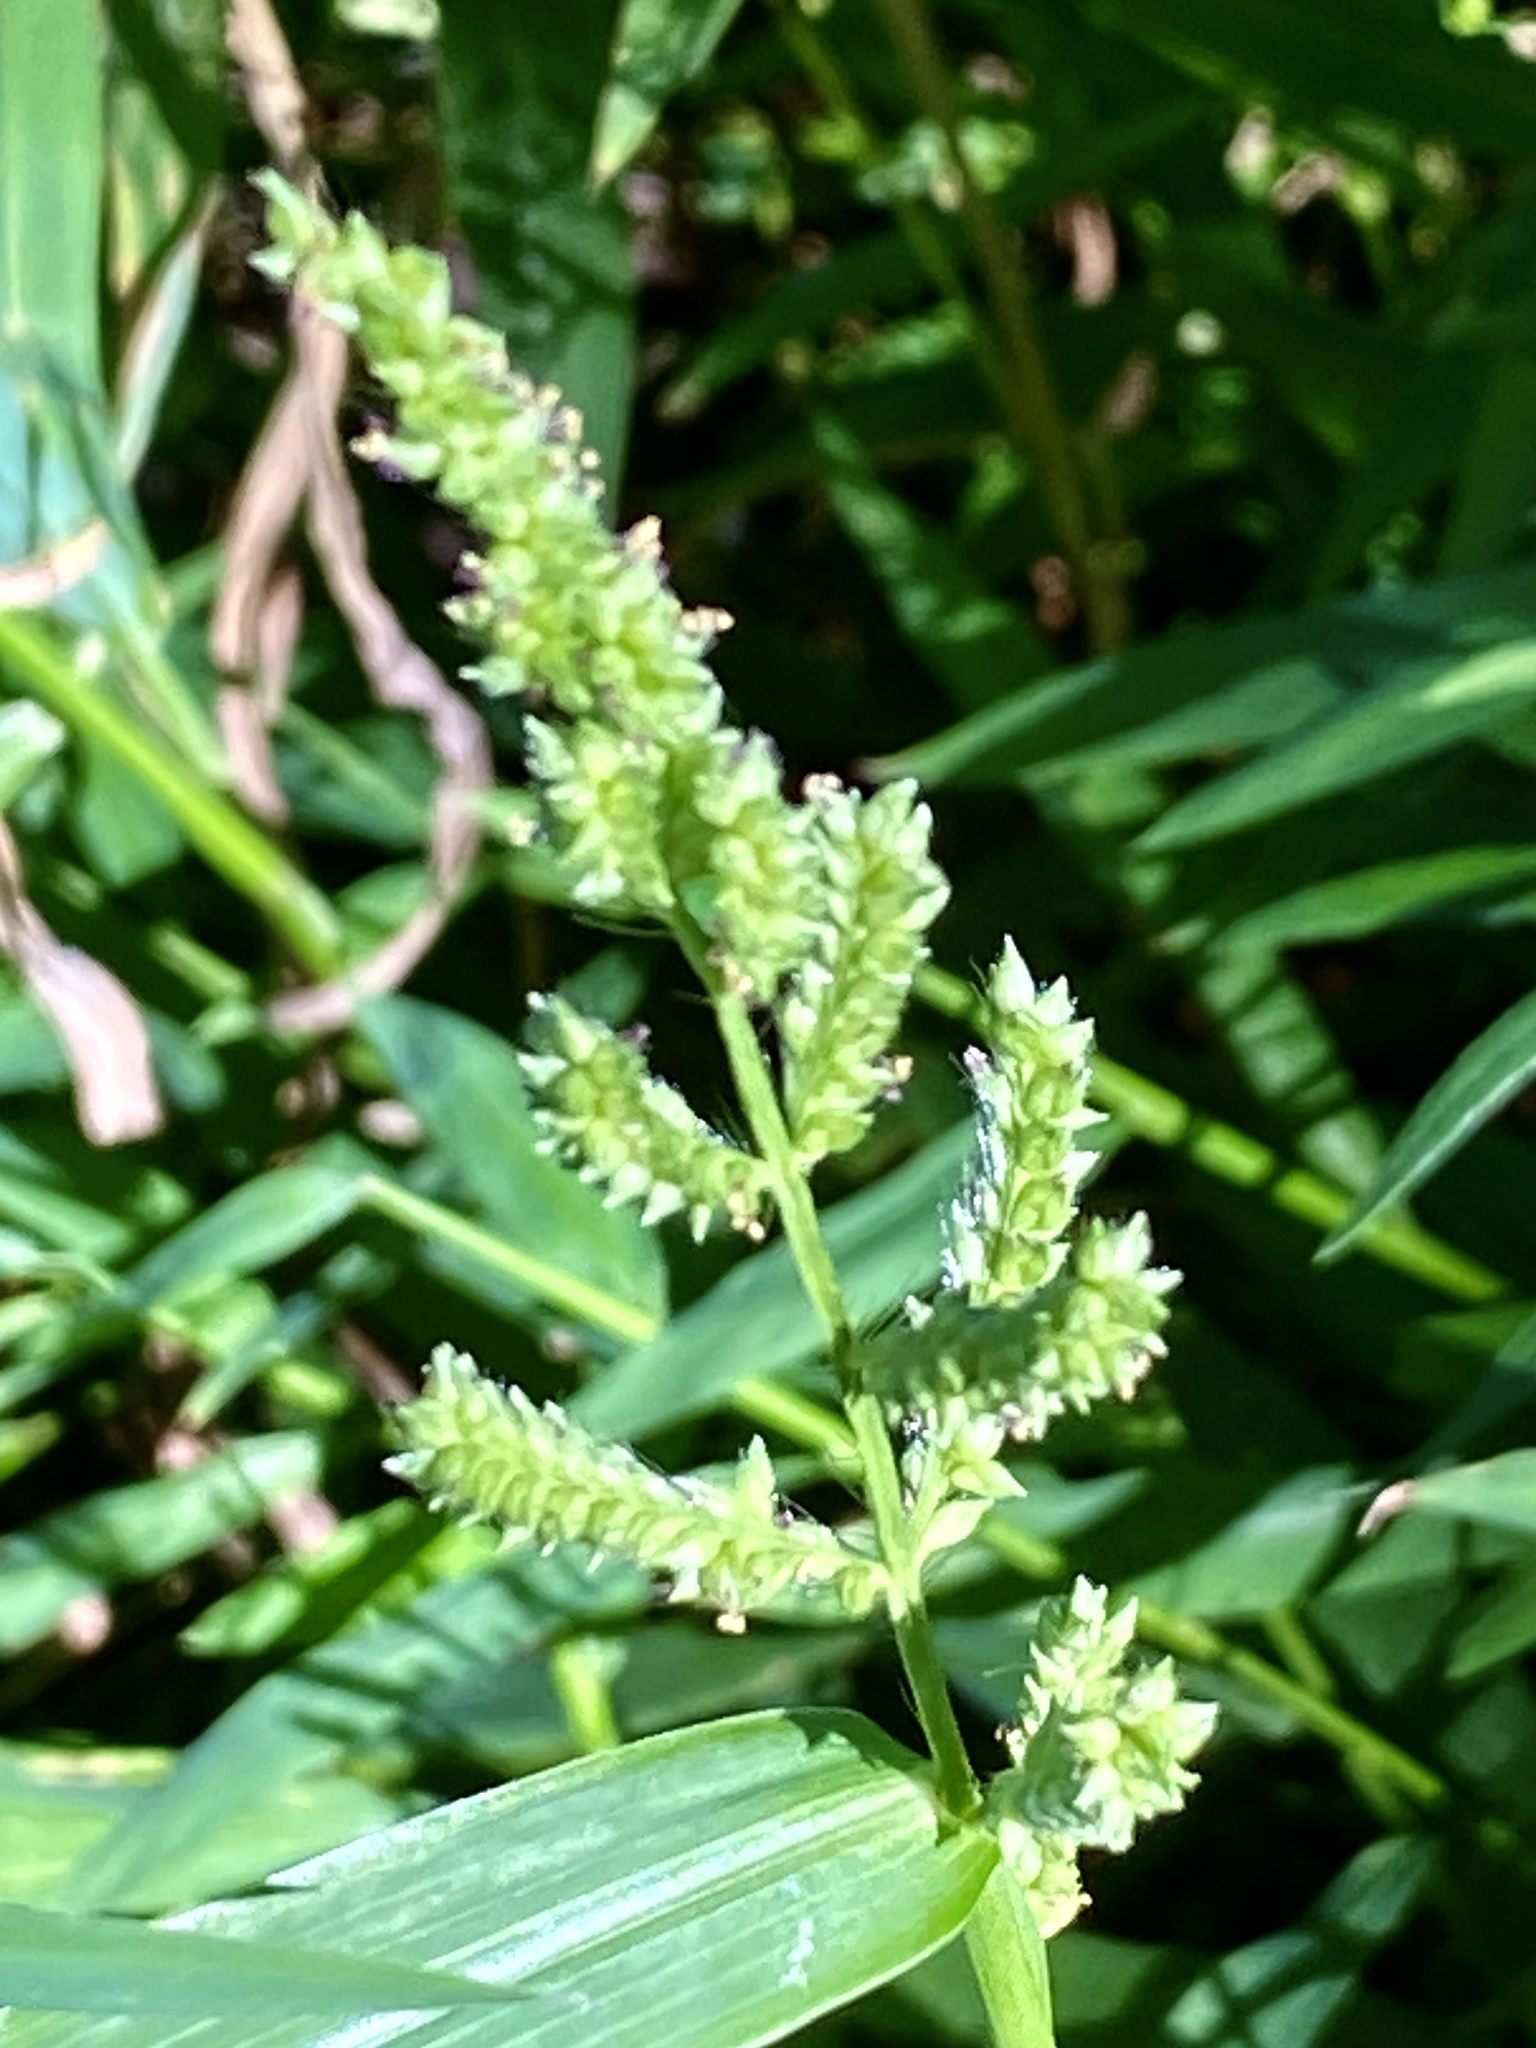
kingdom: Plantae
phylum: Tracheophyta
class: Liliopsida
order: Poales
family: Poaceae
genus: Echinochloa
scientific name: Echinochloa crus-galli
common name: Cockspur
